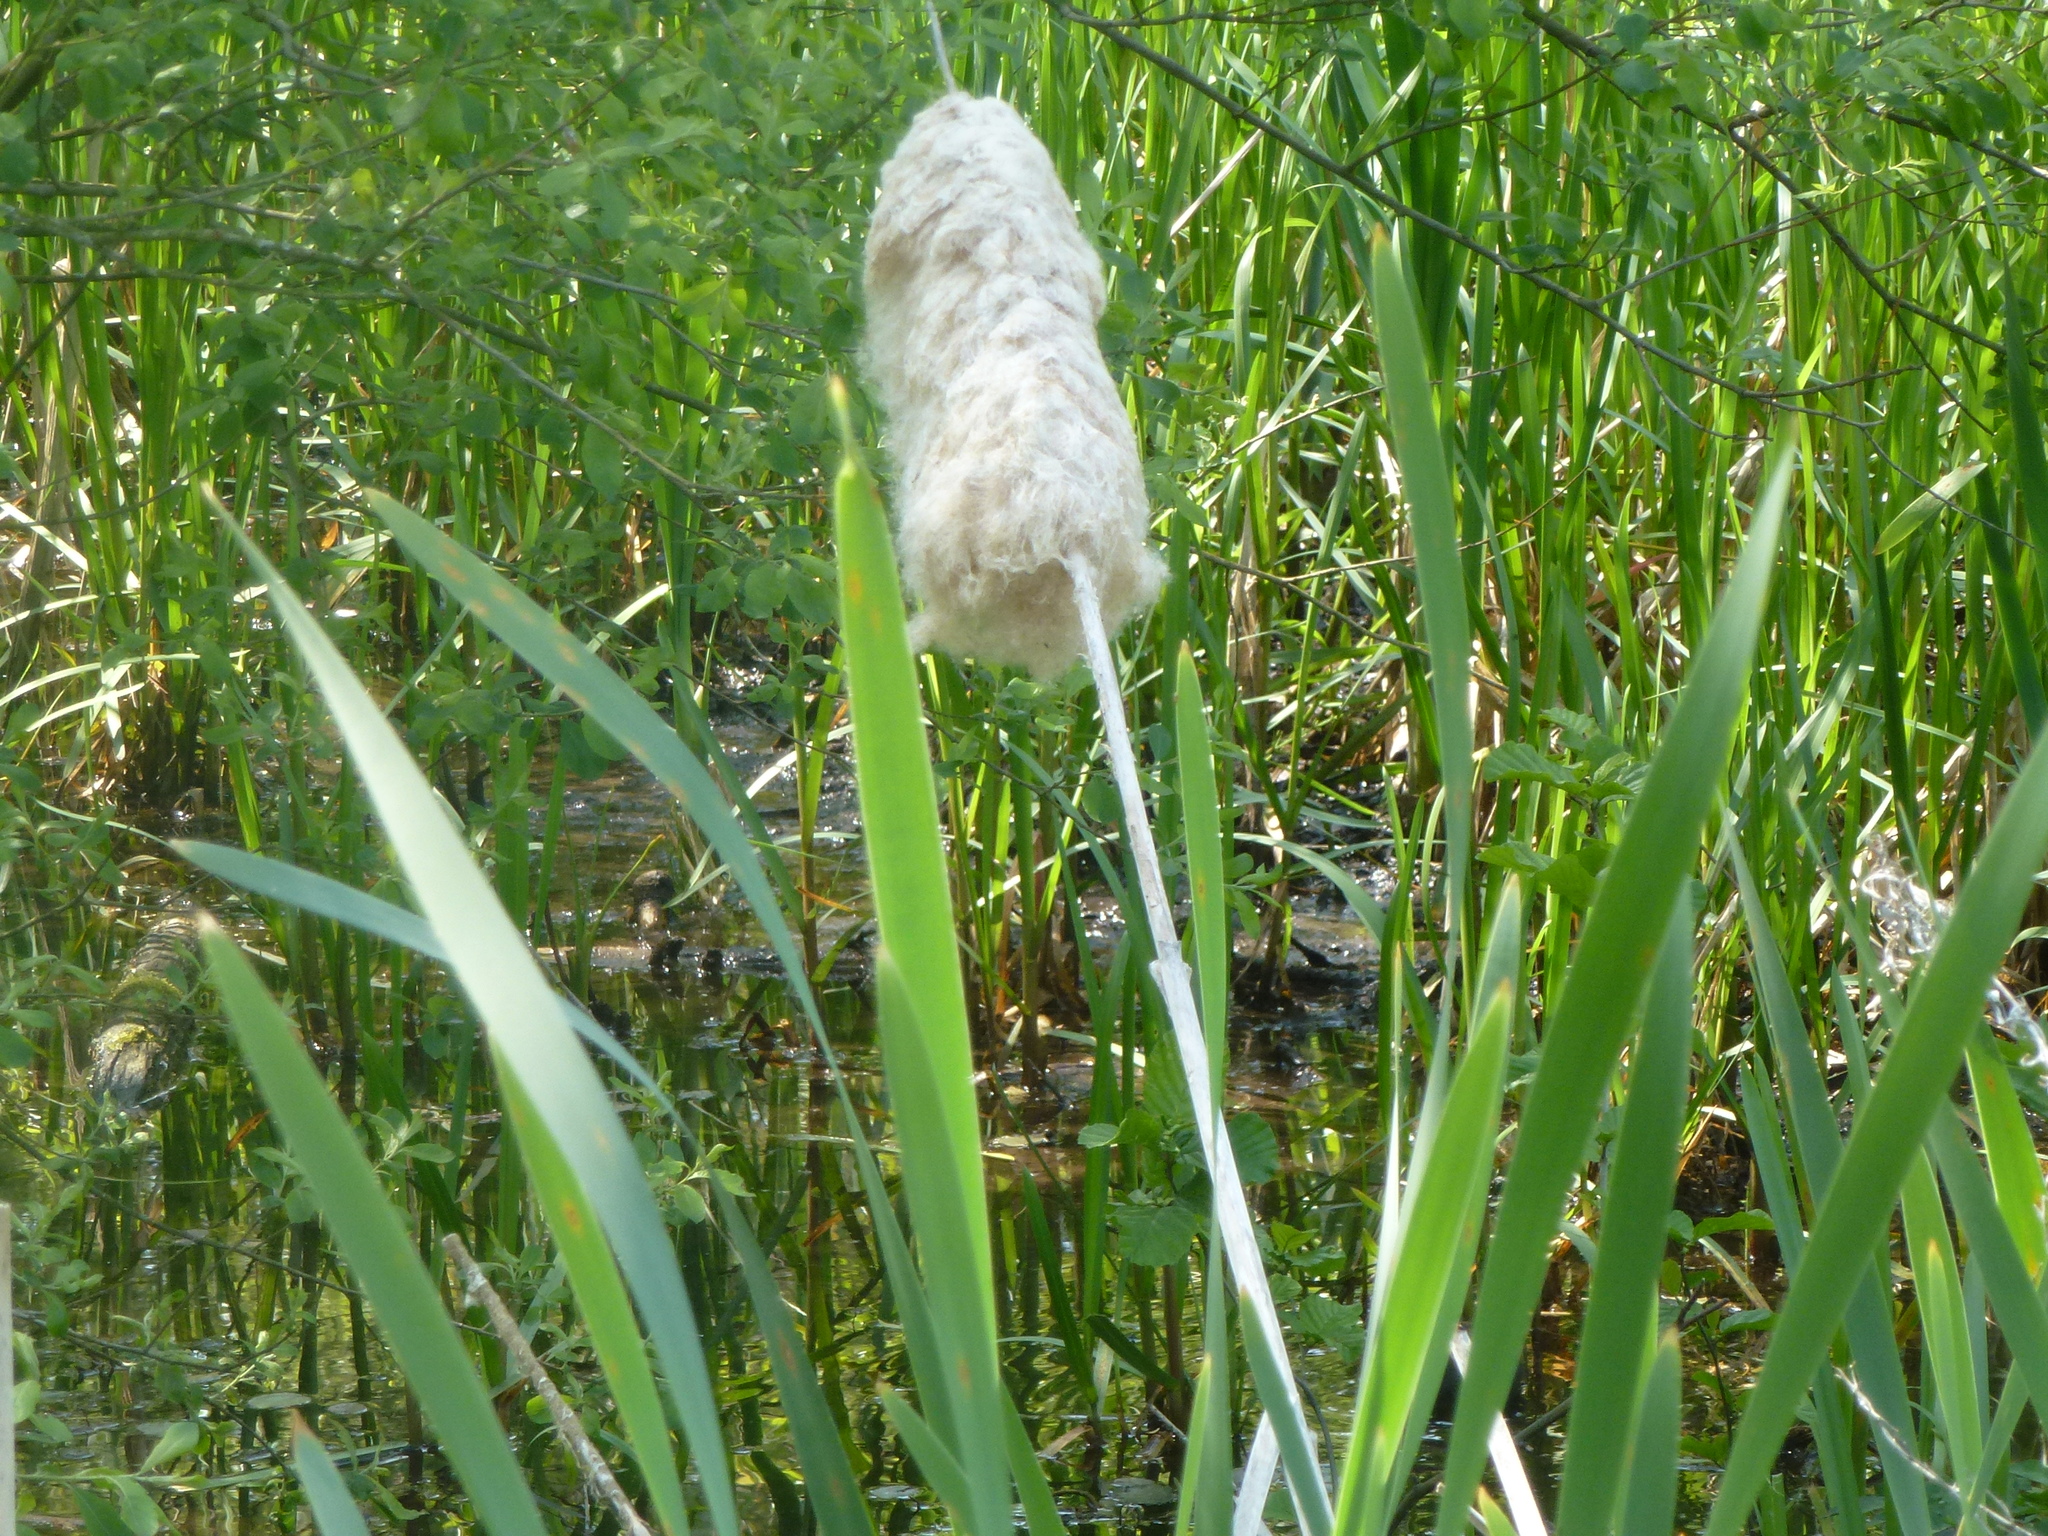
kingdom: Plantae
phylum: Tracheophyta
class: Liliopsida
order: Poales
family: Typhaceae
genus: Typha
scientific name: Typha latifolia
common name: Broadleaf cattail
